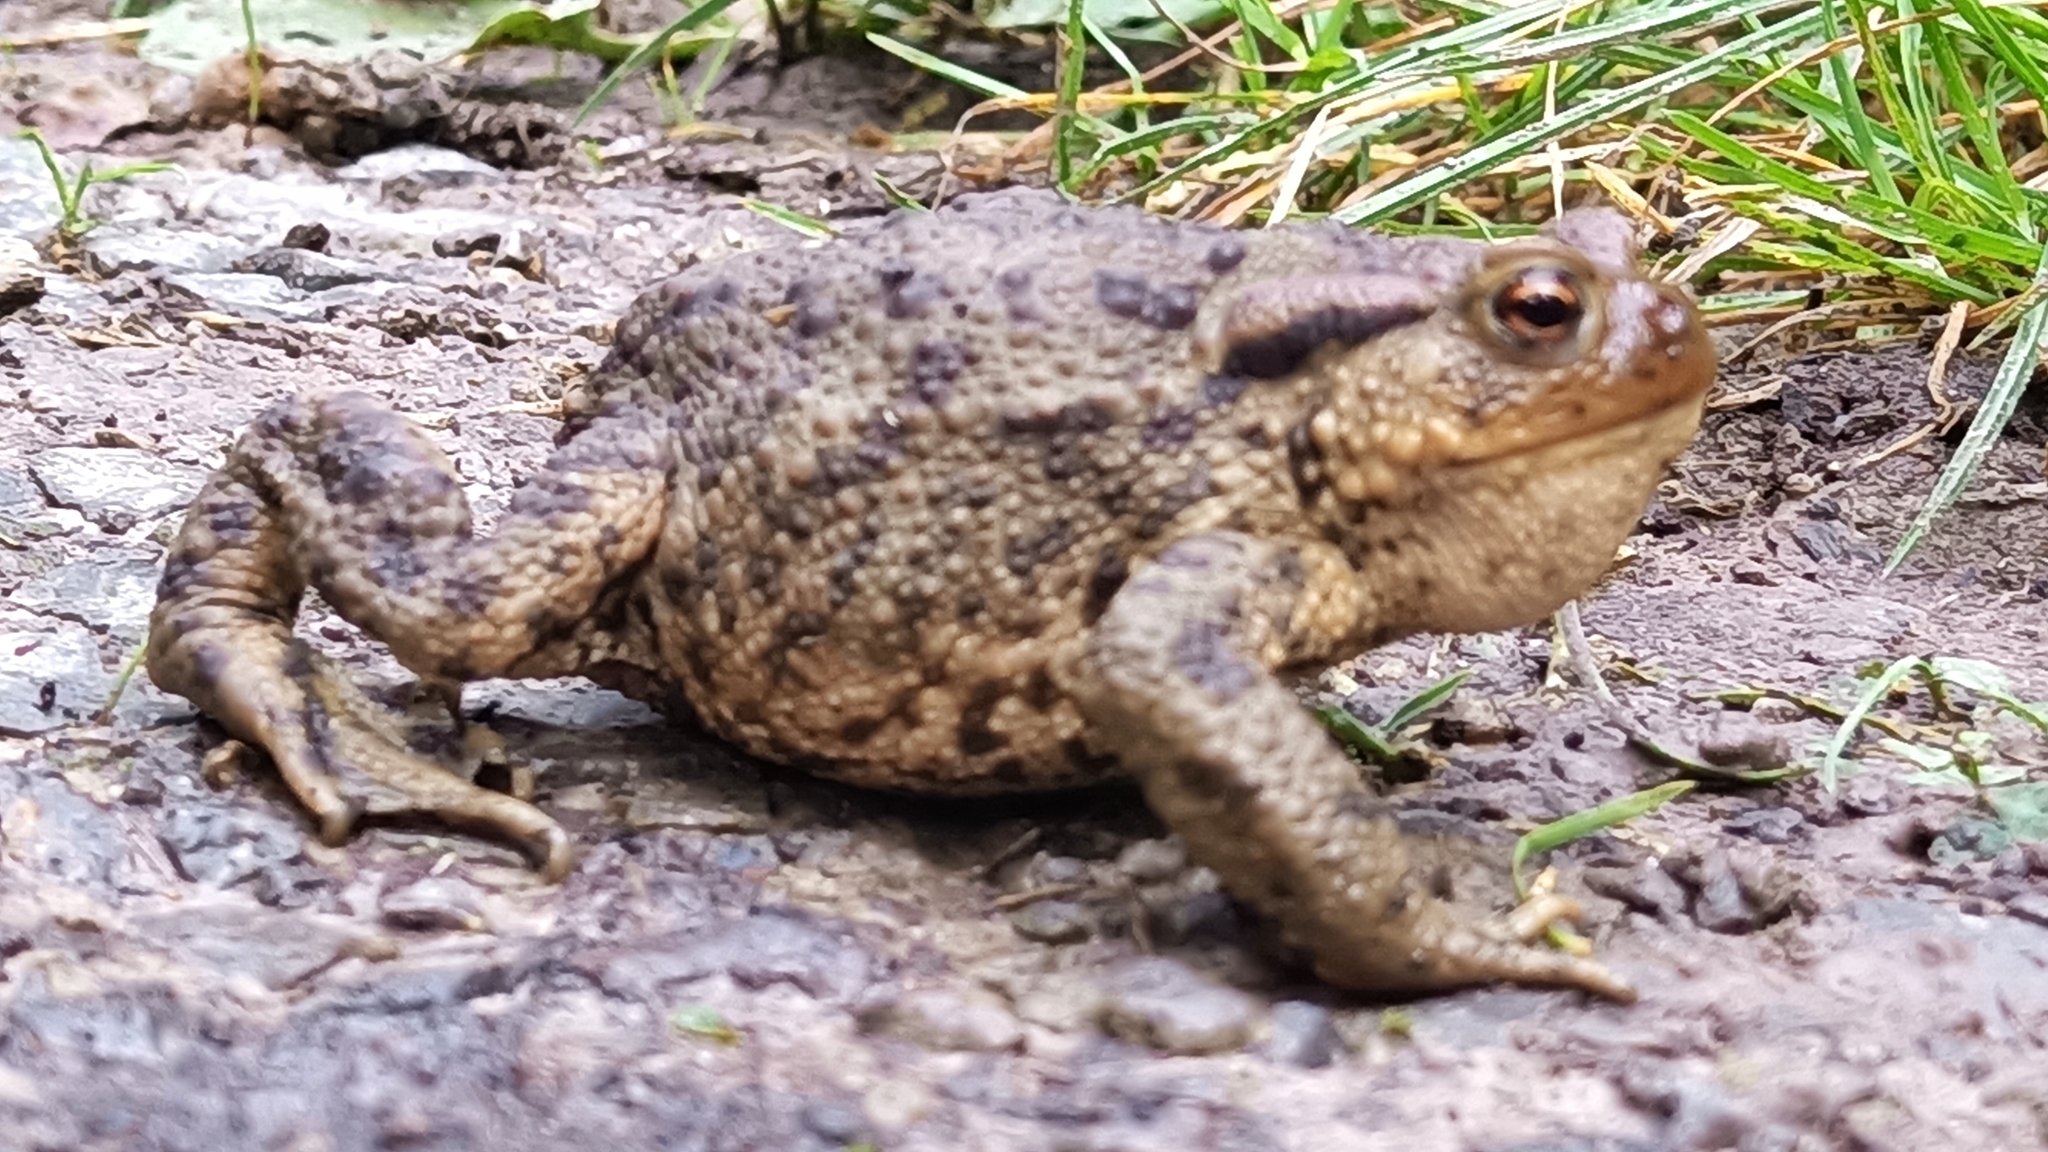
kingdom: Animalia
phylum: Chordata
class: Amphibia
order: Anura
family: Bufonidae
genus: Bufo
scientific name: Bufo bufo
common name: Common toad
